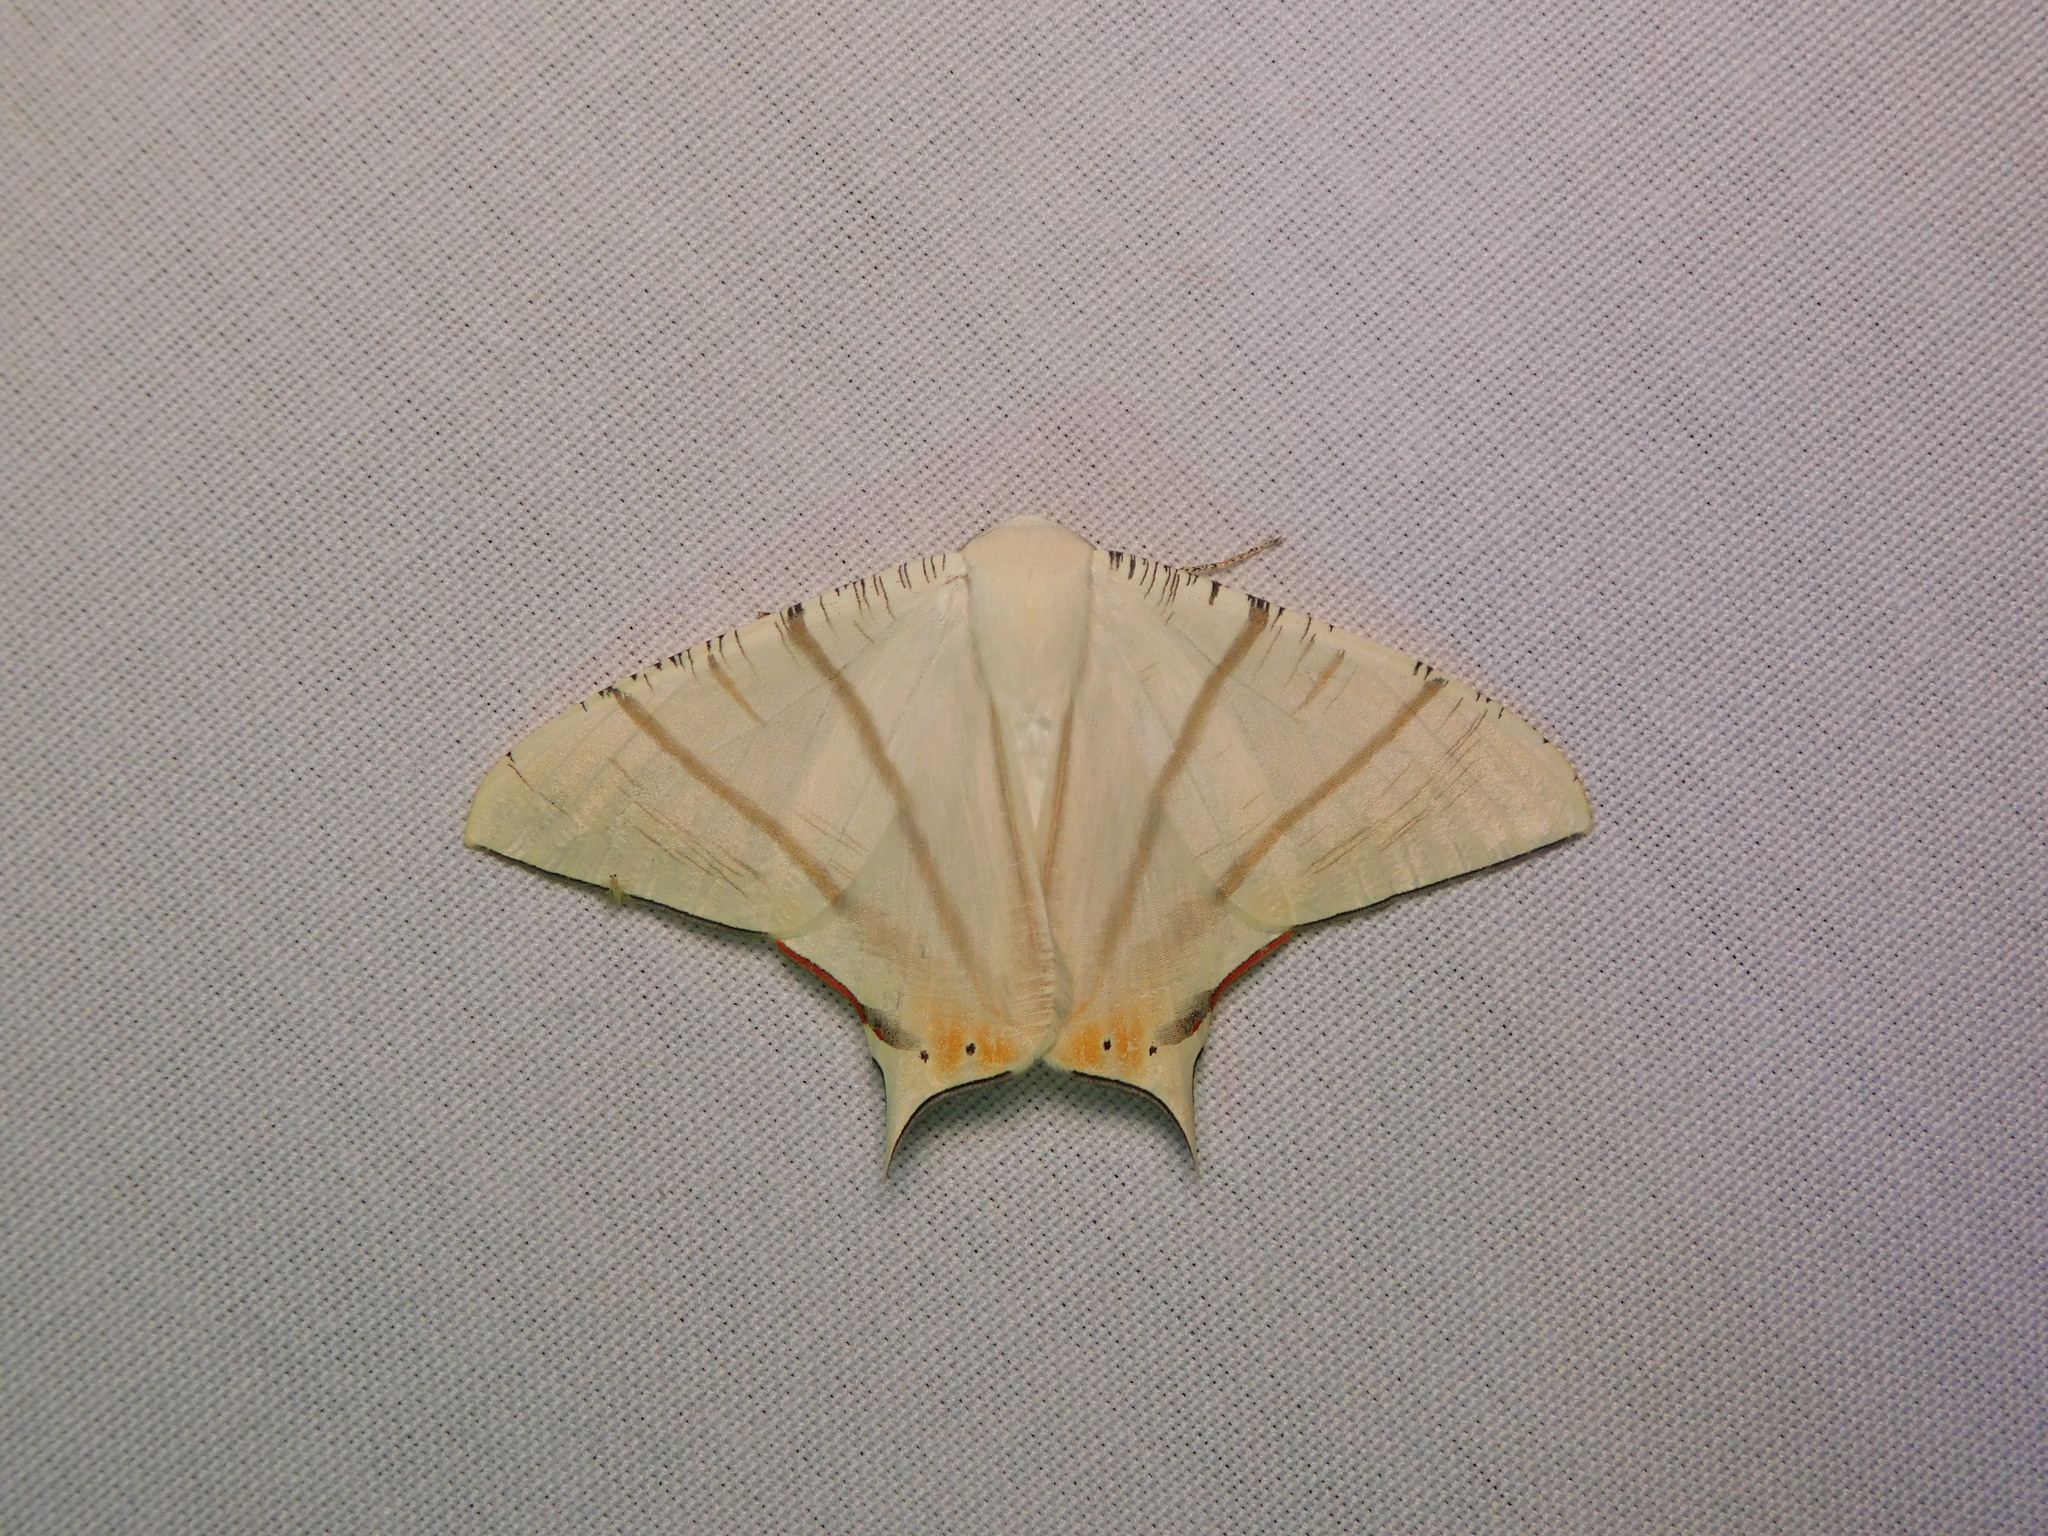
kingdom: Animalia
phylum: Arthropoda
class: Insecta
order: Lepidoptera
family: Geometridae
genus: Ourapteryx
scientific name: Ourapteryx marginata
